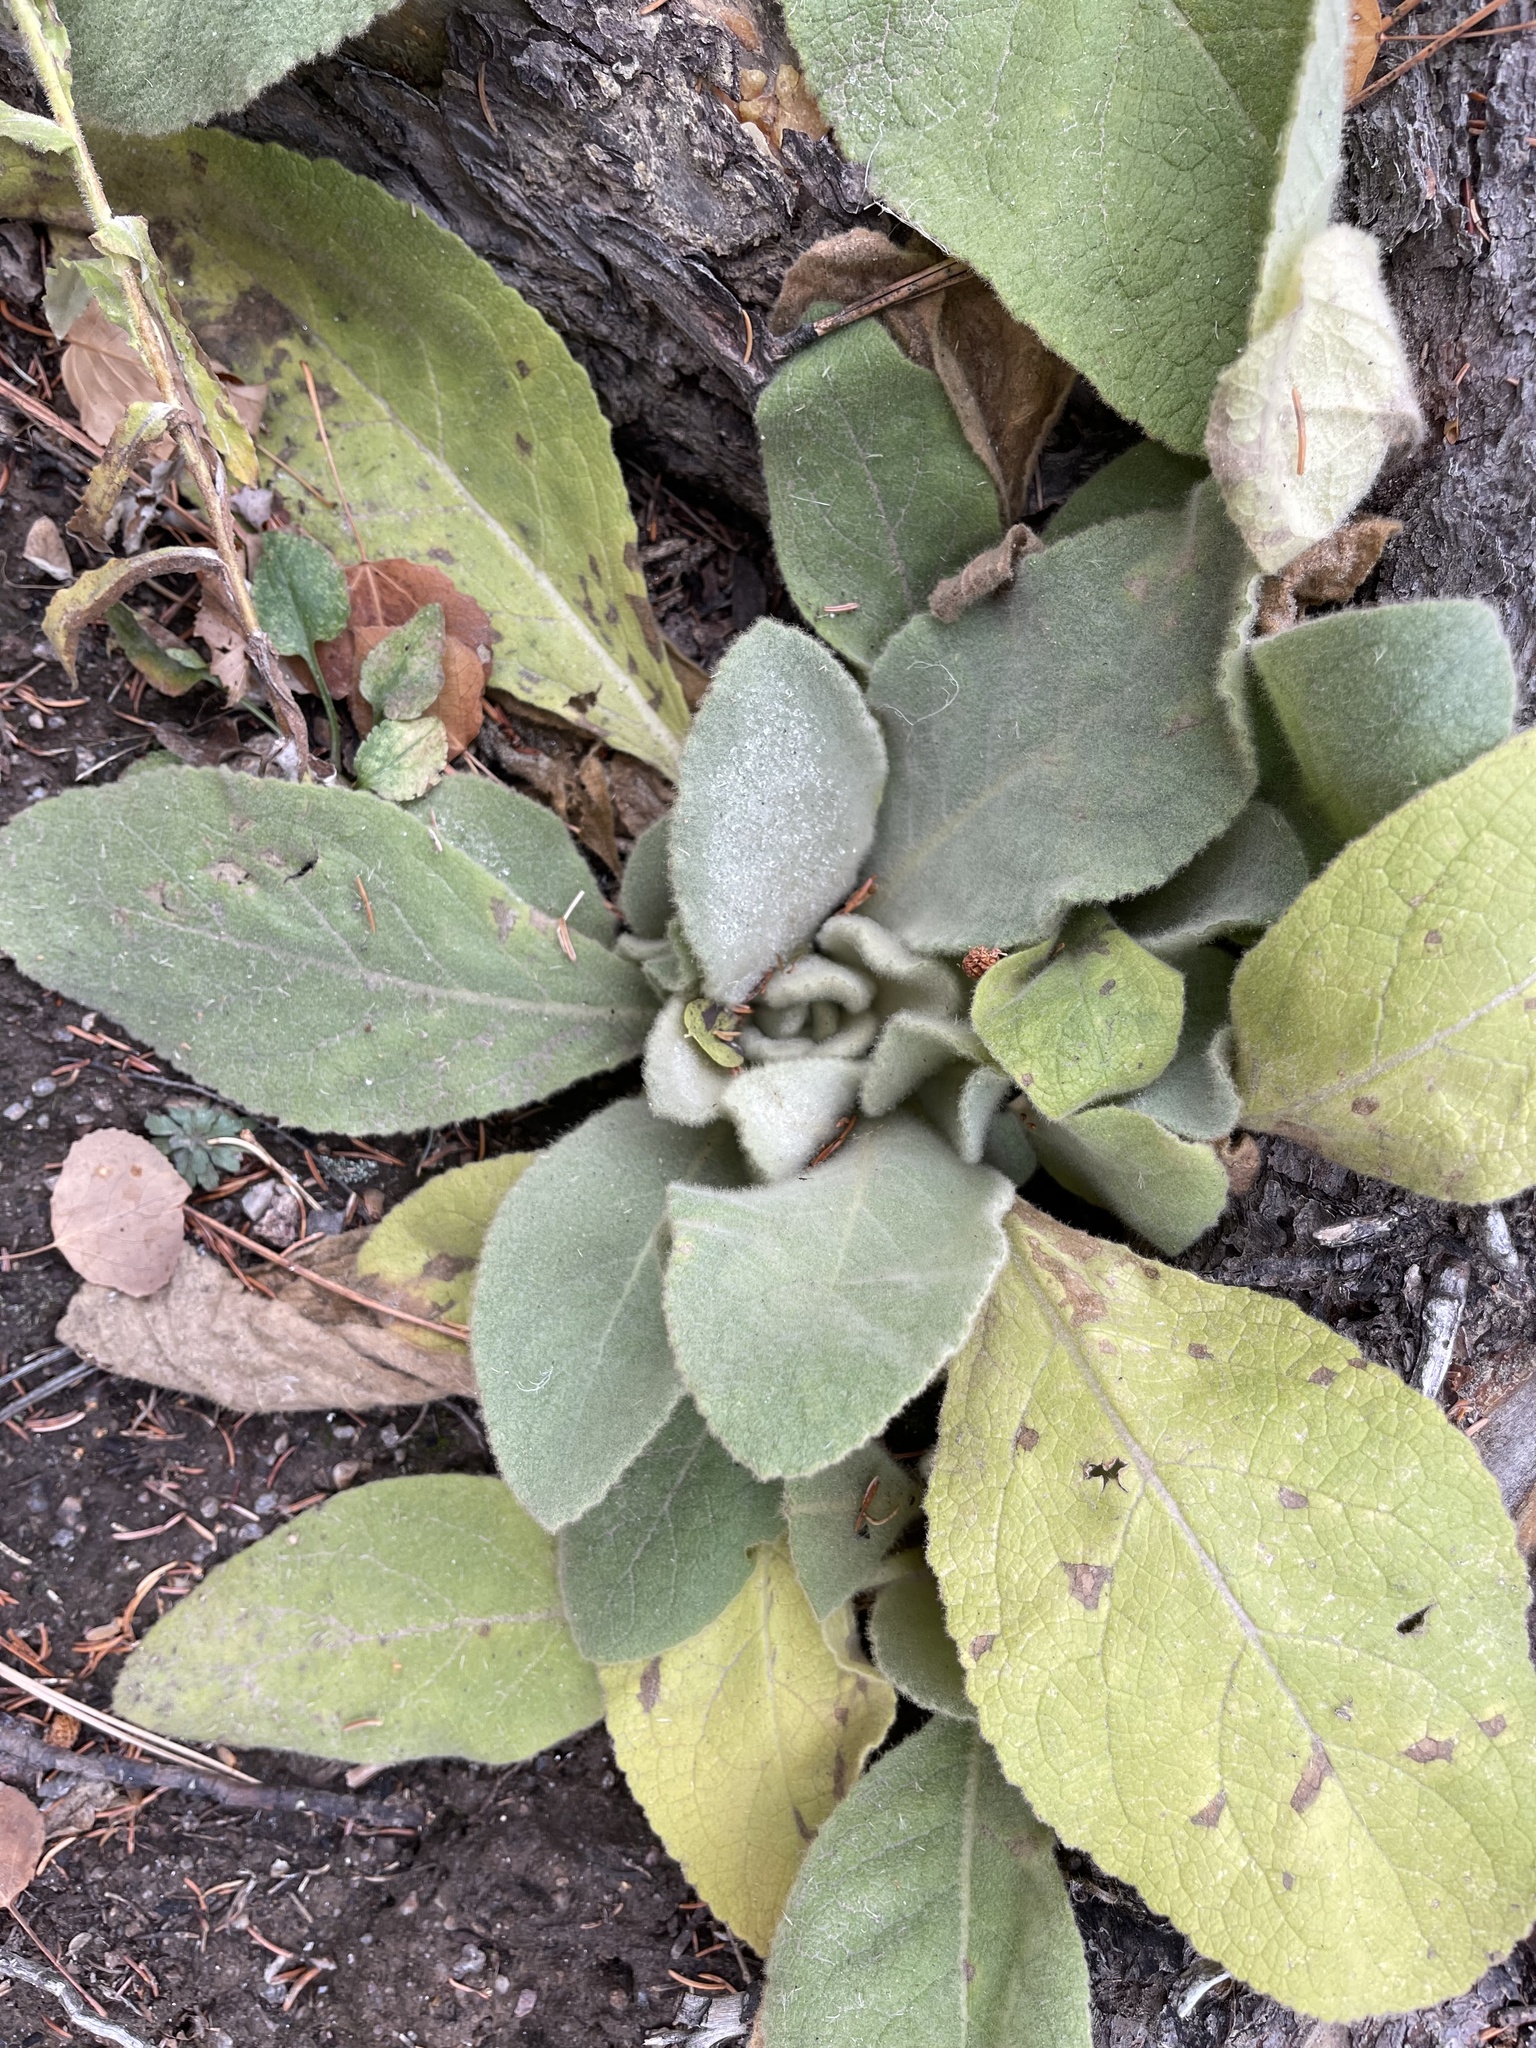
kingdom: Plantae
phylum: Tracheophyta
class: Magnoliopsida
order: Lamiales
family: Scrophulariaceae
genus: Verbascum
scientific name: Verbascum thapsus
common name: Common mullein
